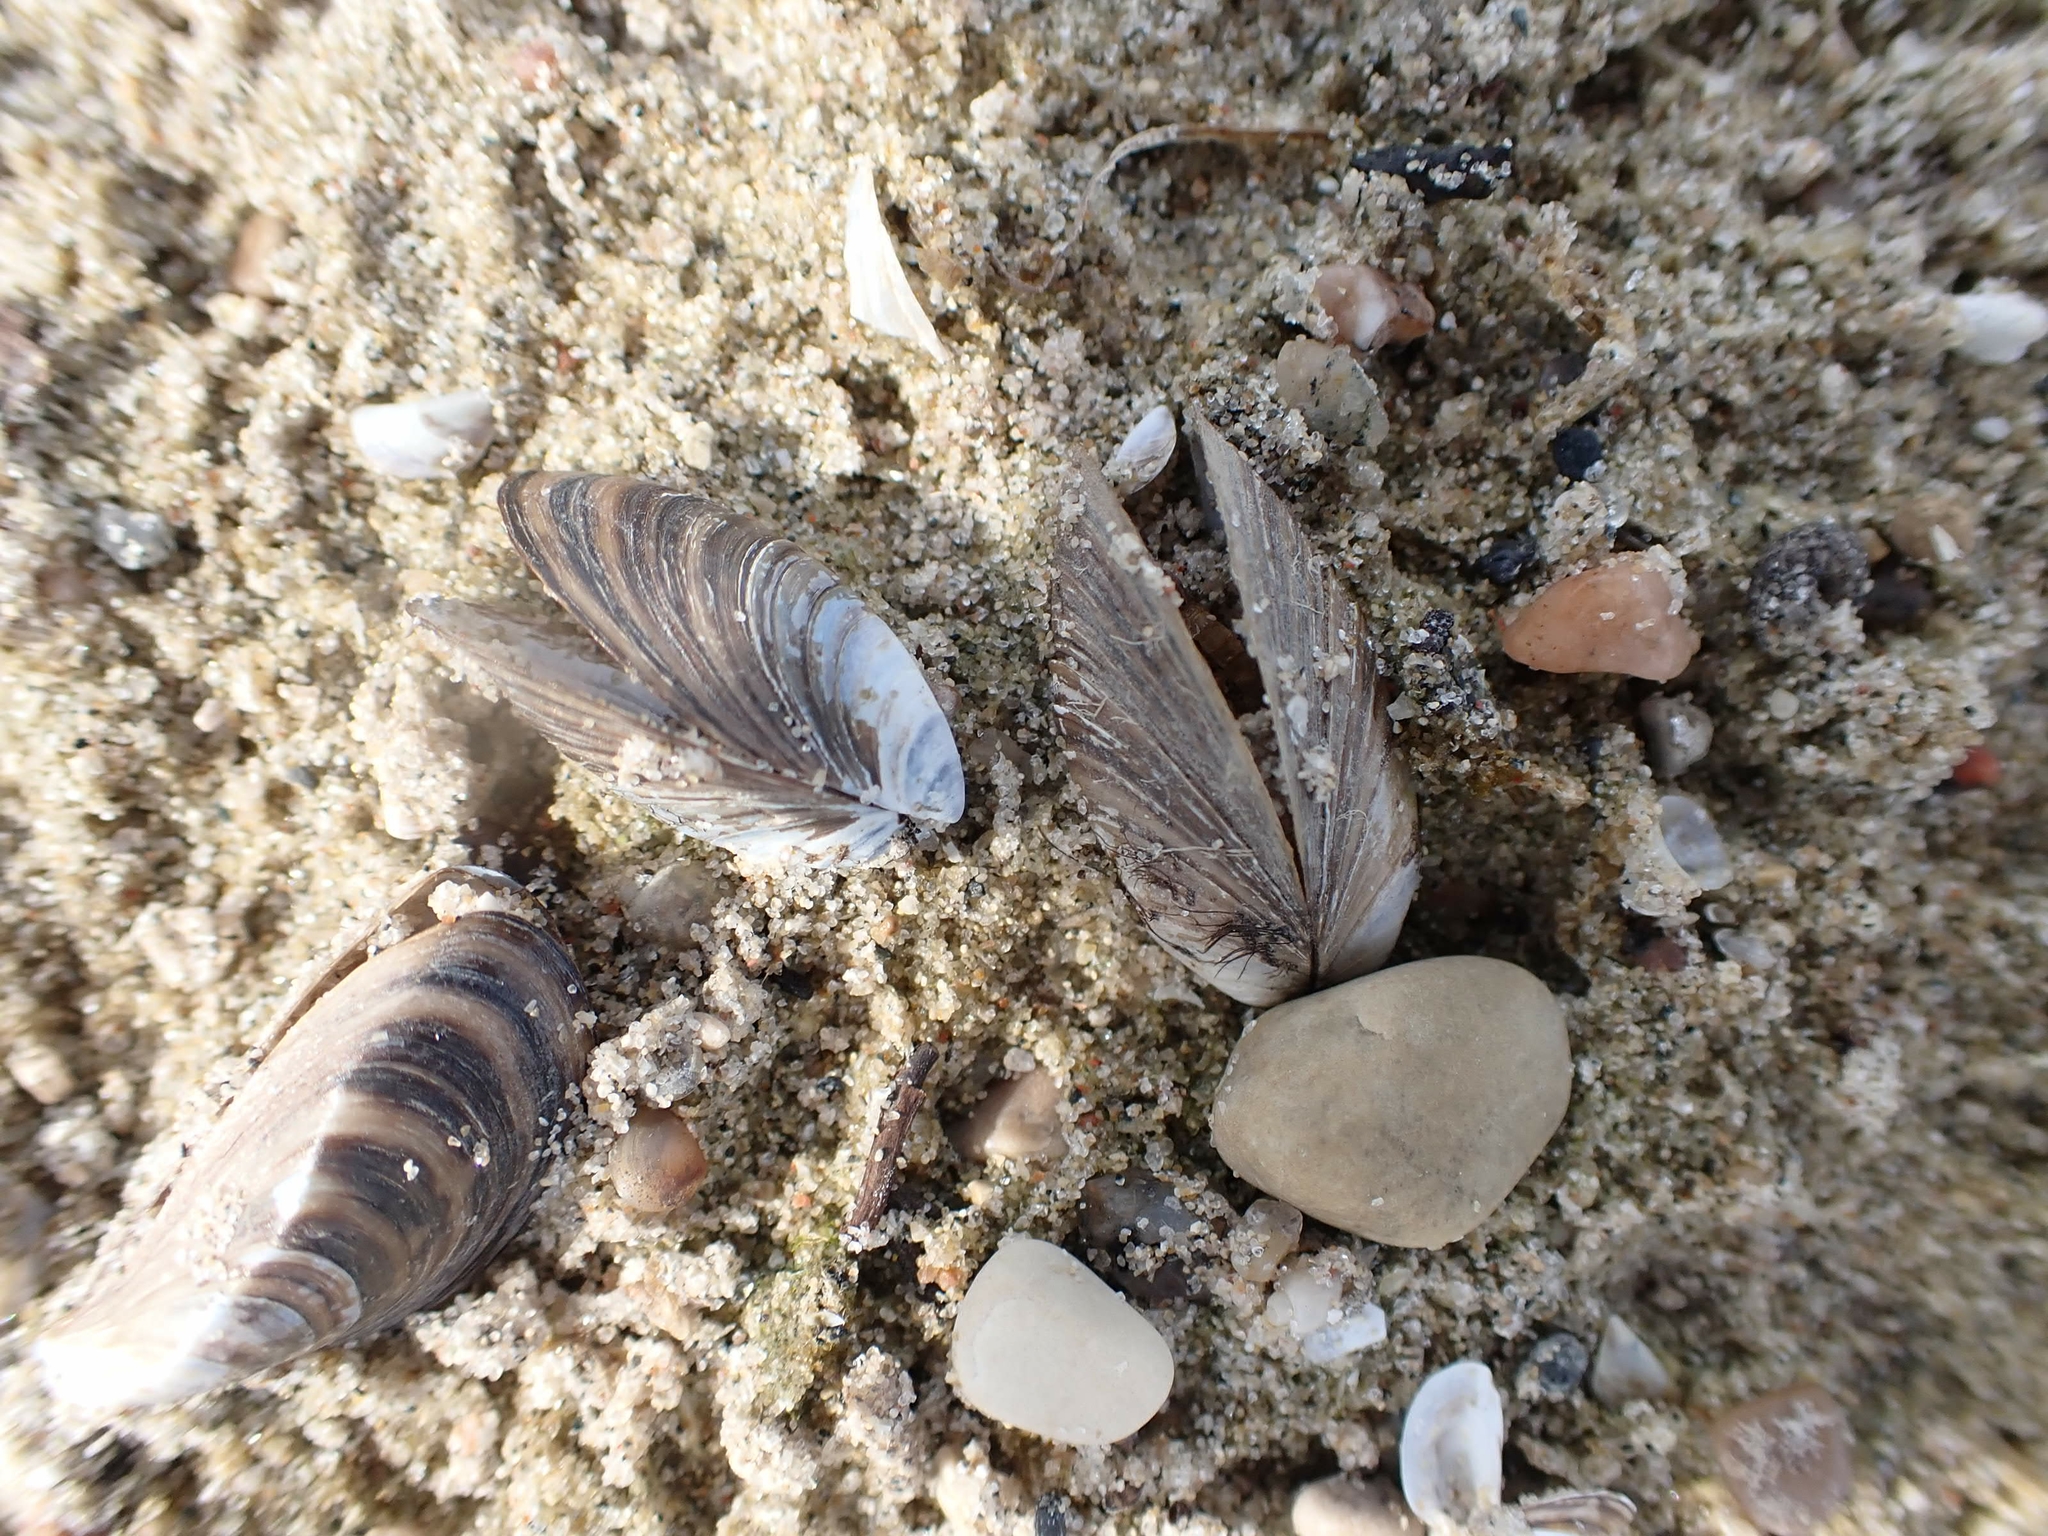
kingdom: Animalia
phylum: Mollusca
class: Bivalvia
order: Myida
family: Dreissenidae
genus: Dreissena
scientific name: Dreissena polymorpha
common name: Zebra mussel
